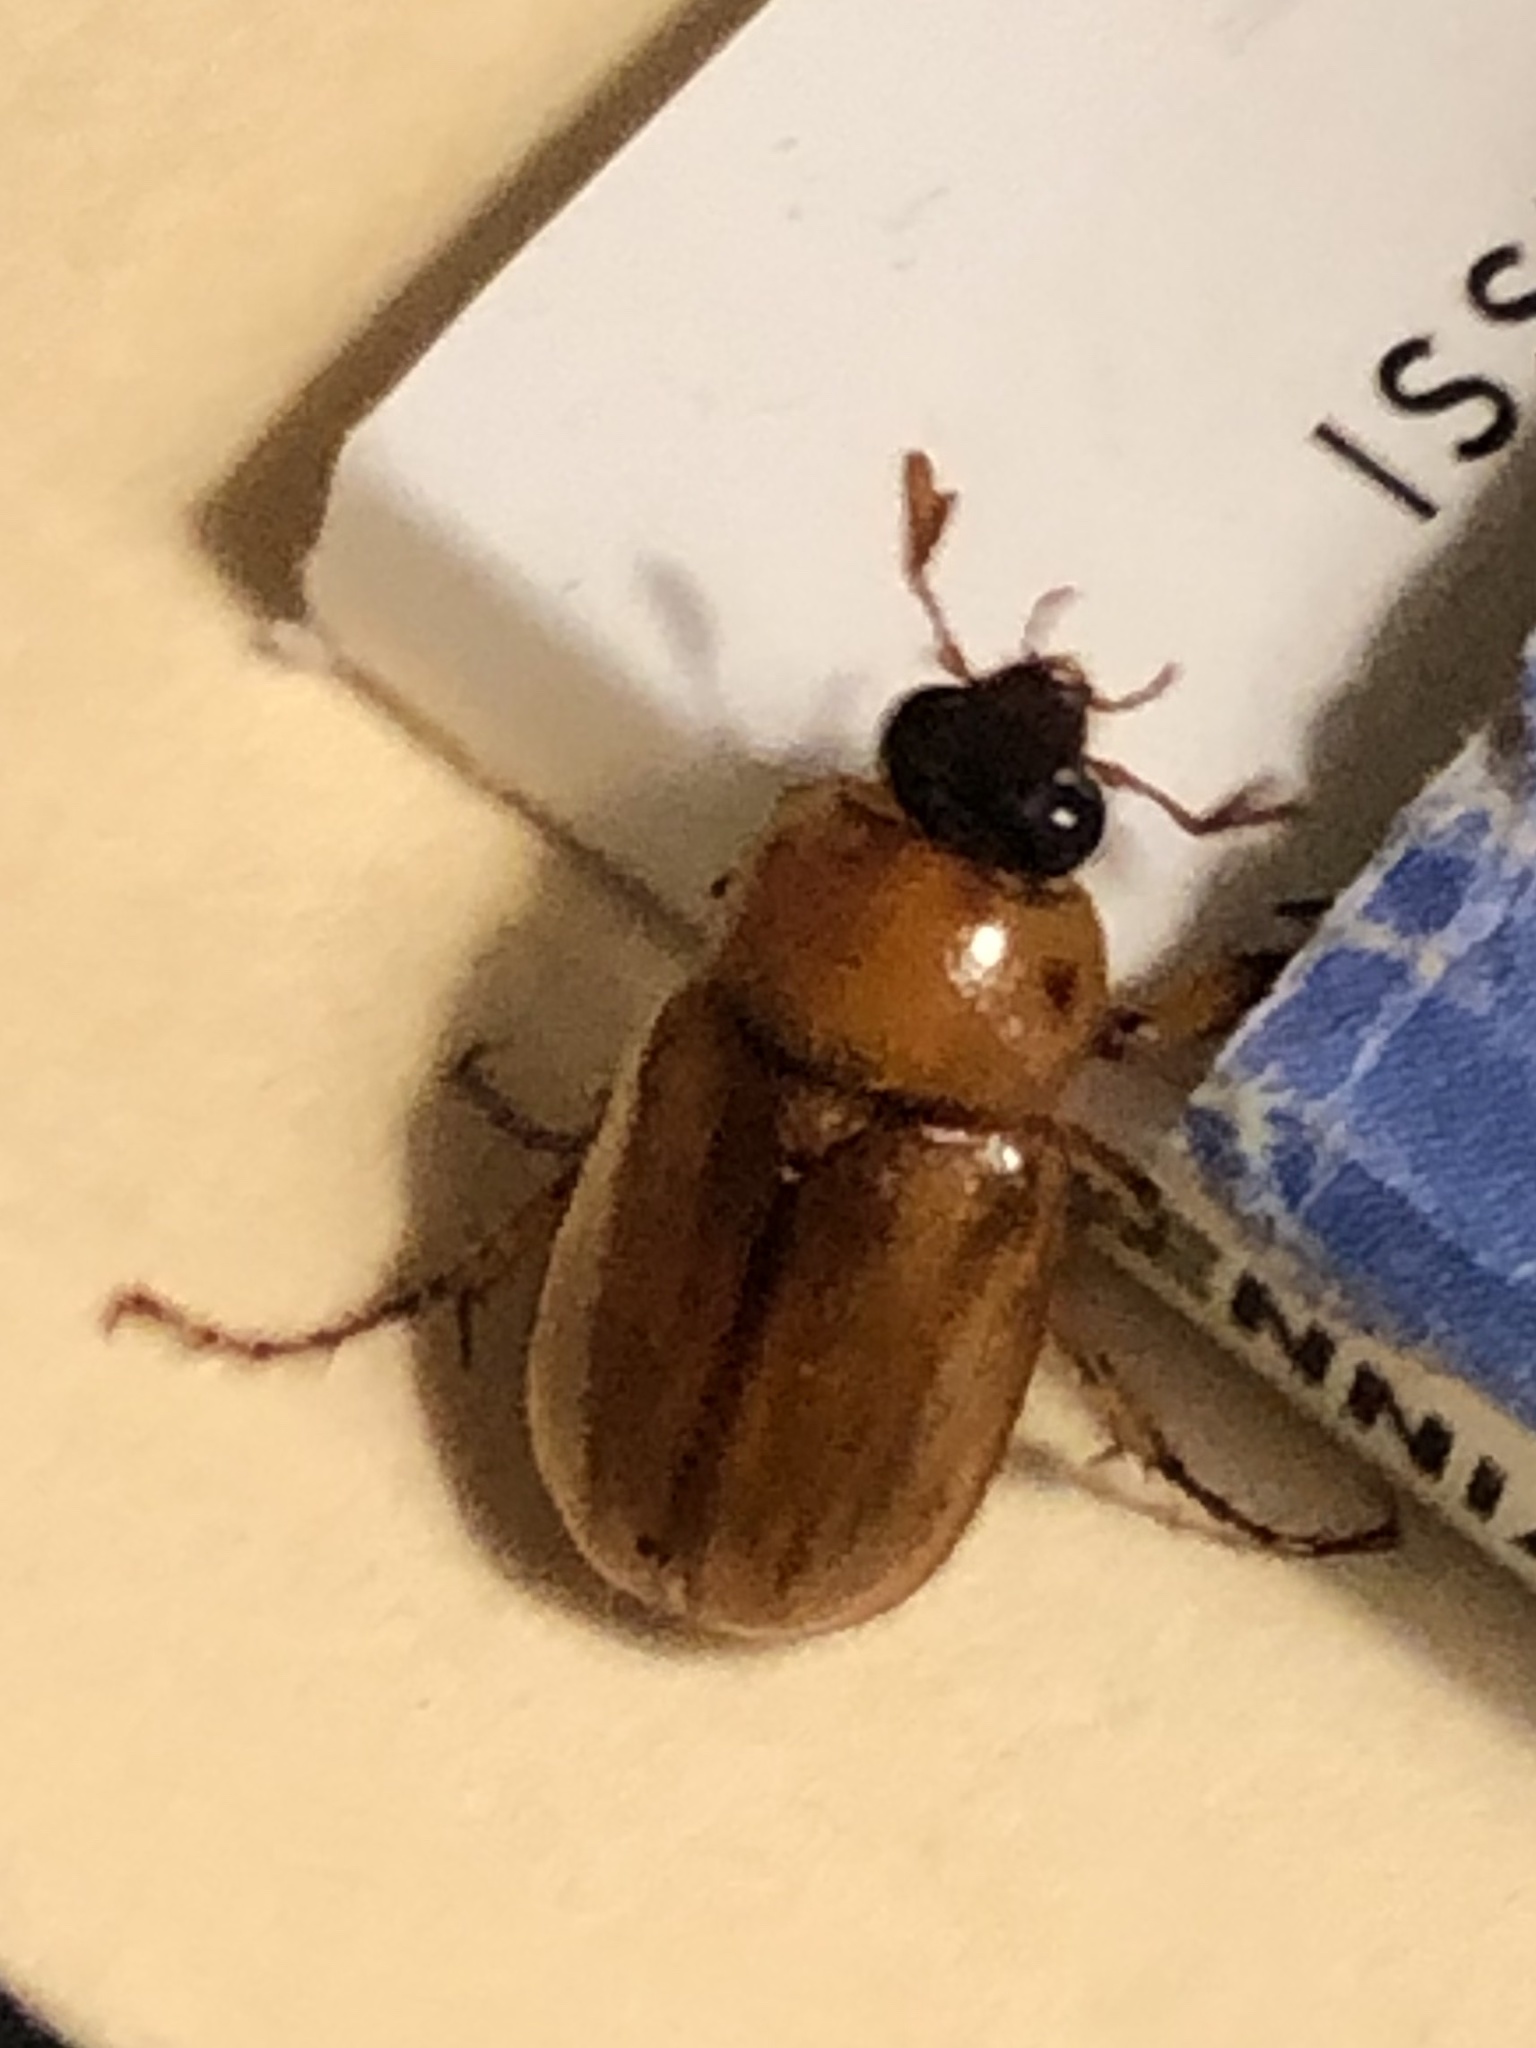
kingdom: Animalia
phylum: Arthropoda
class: Insecta
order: Coleoptera
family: Scarabaeidae
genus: Cyclocephala
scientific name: Cyclocephala lurida
